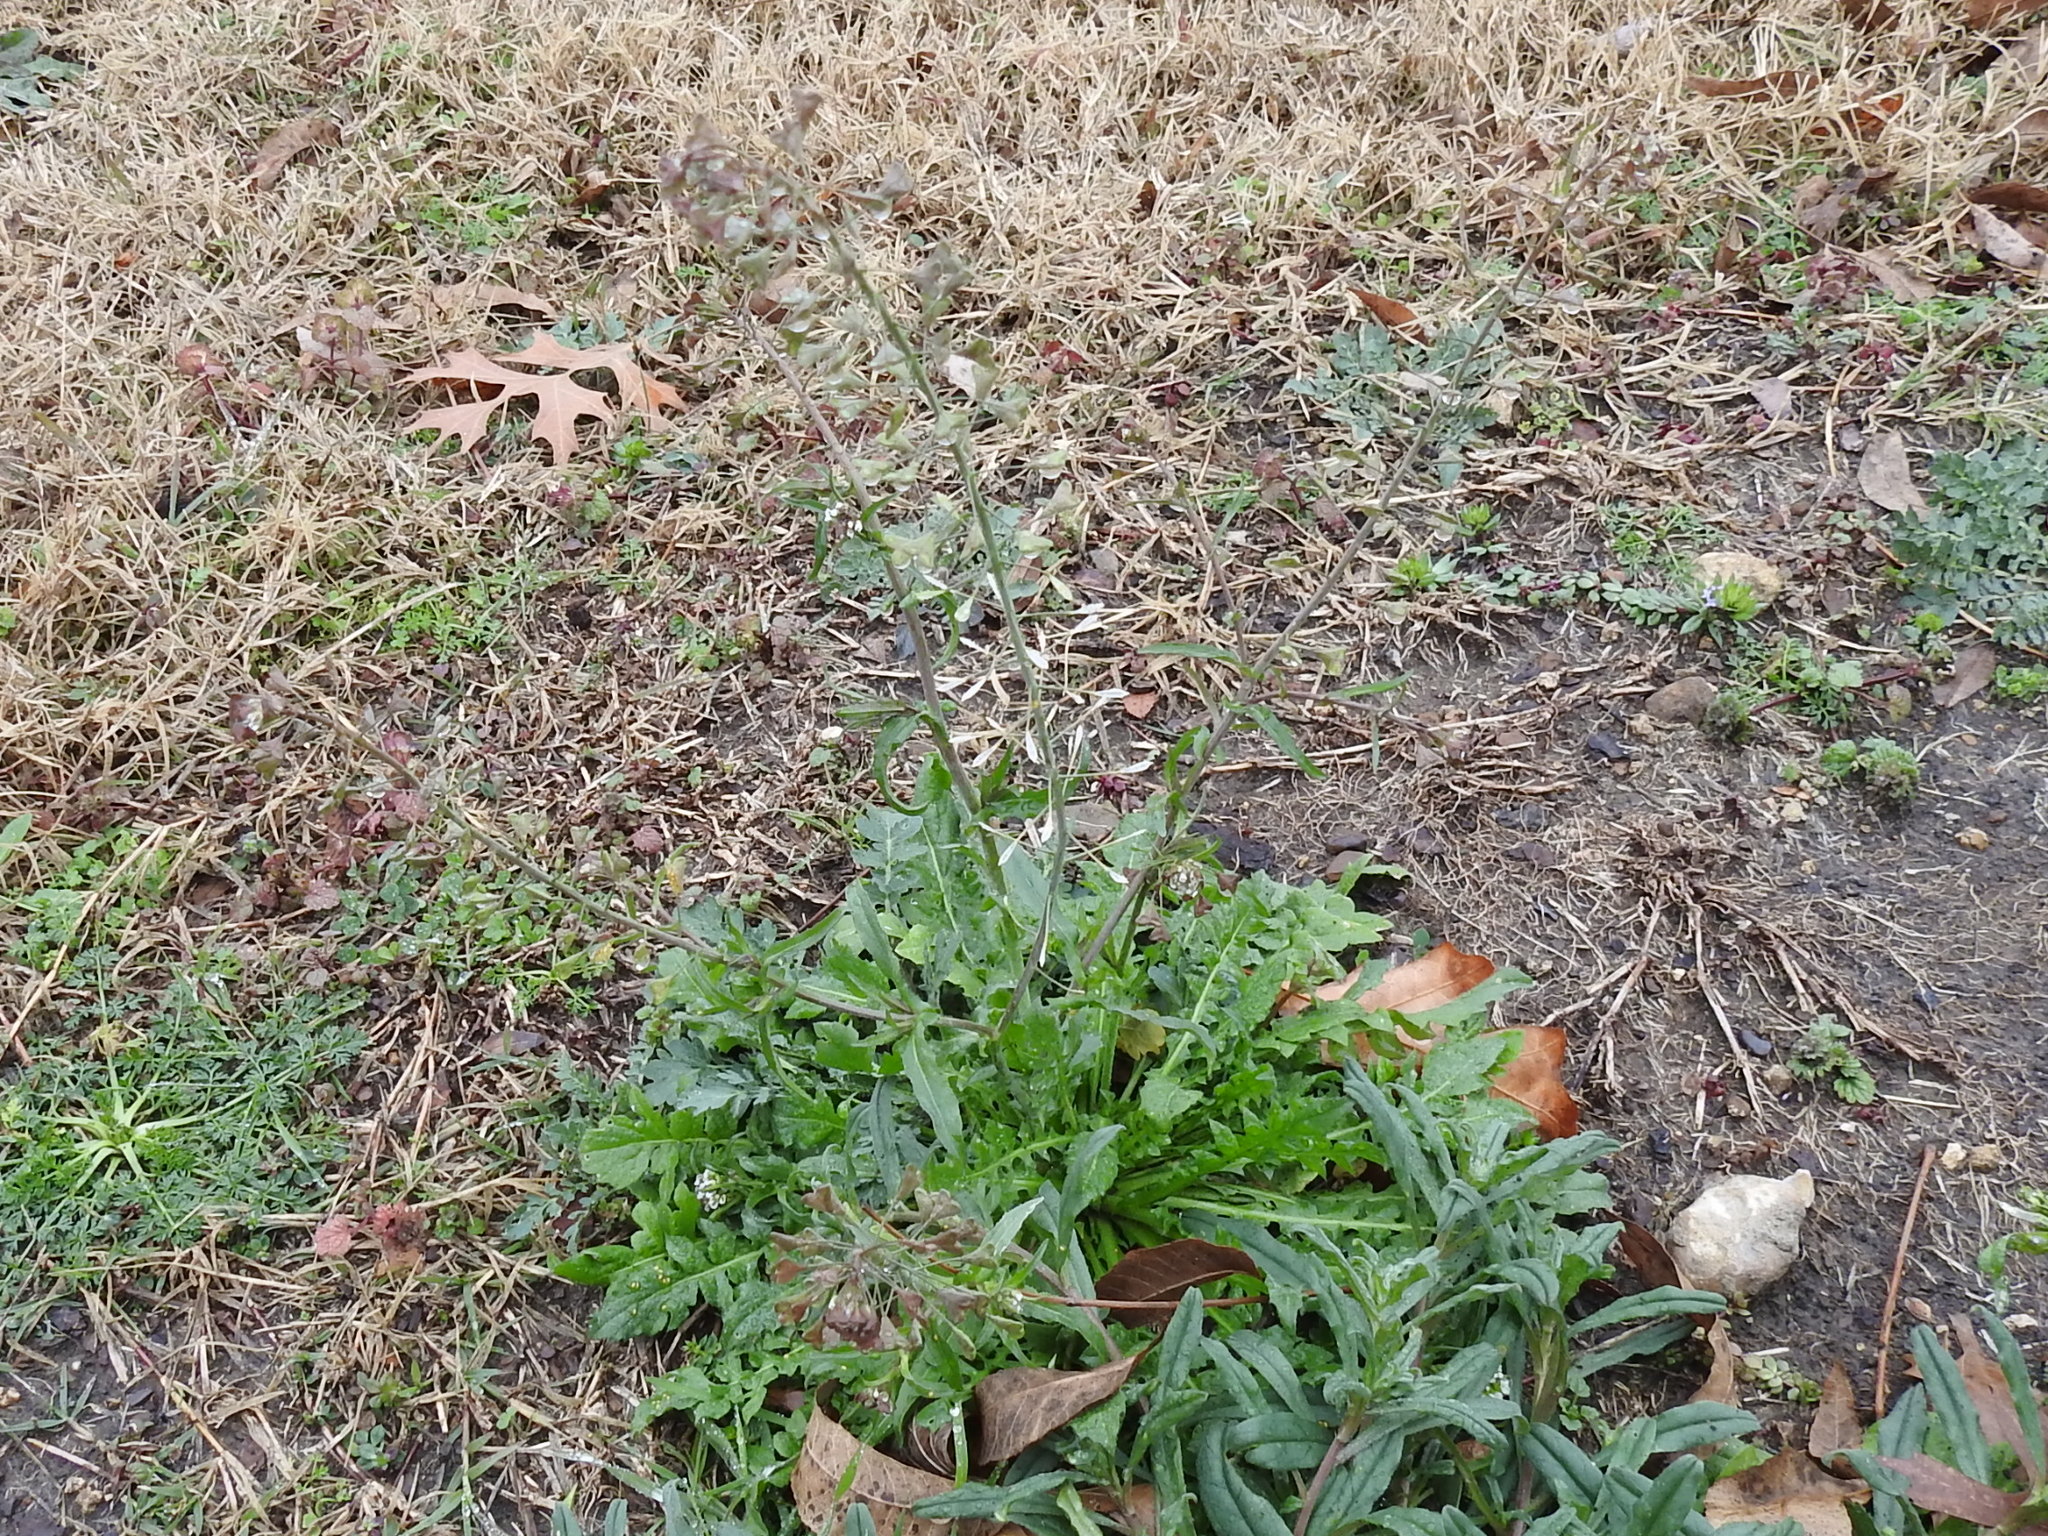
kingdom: Plantae
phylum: Tracheophyta
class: Magnoliopsida
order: Brassicales
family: Brassicaceae
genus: Capsella
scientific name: Capsella bursa-pastoris
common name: Shepherd's purse
